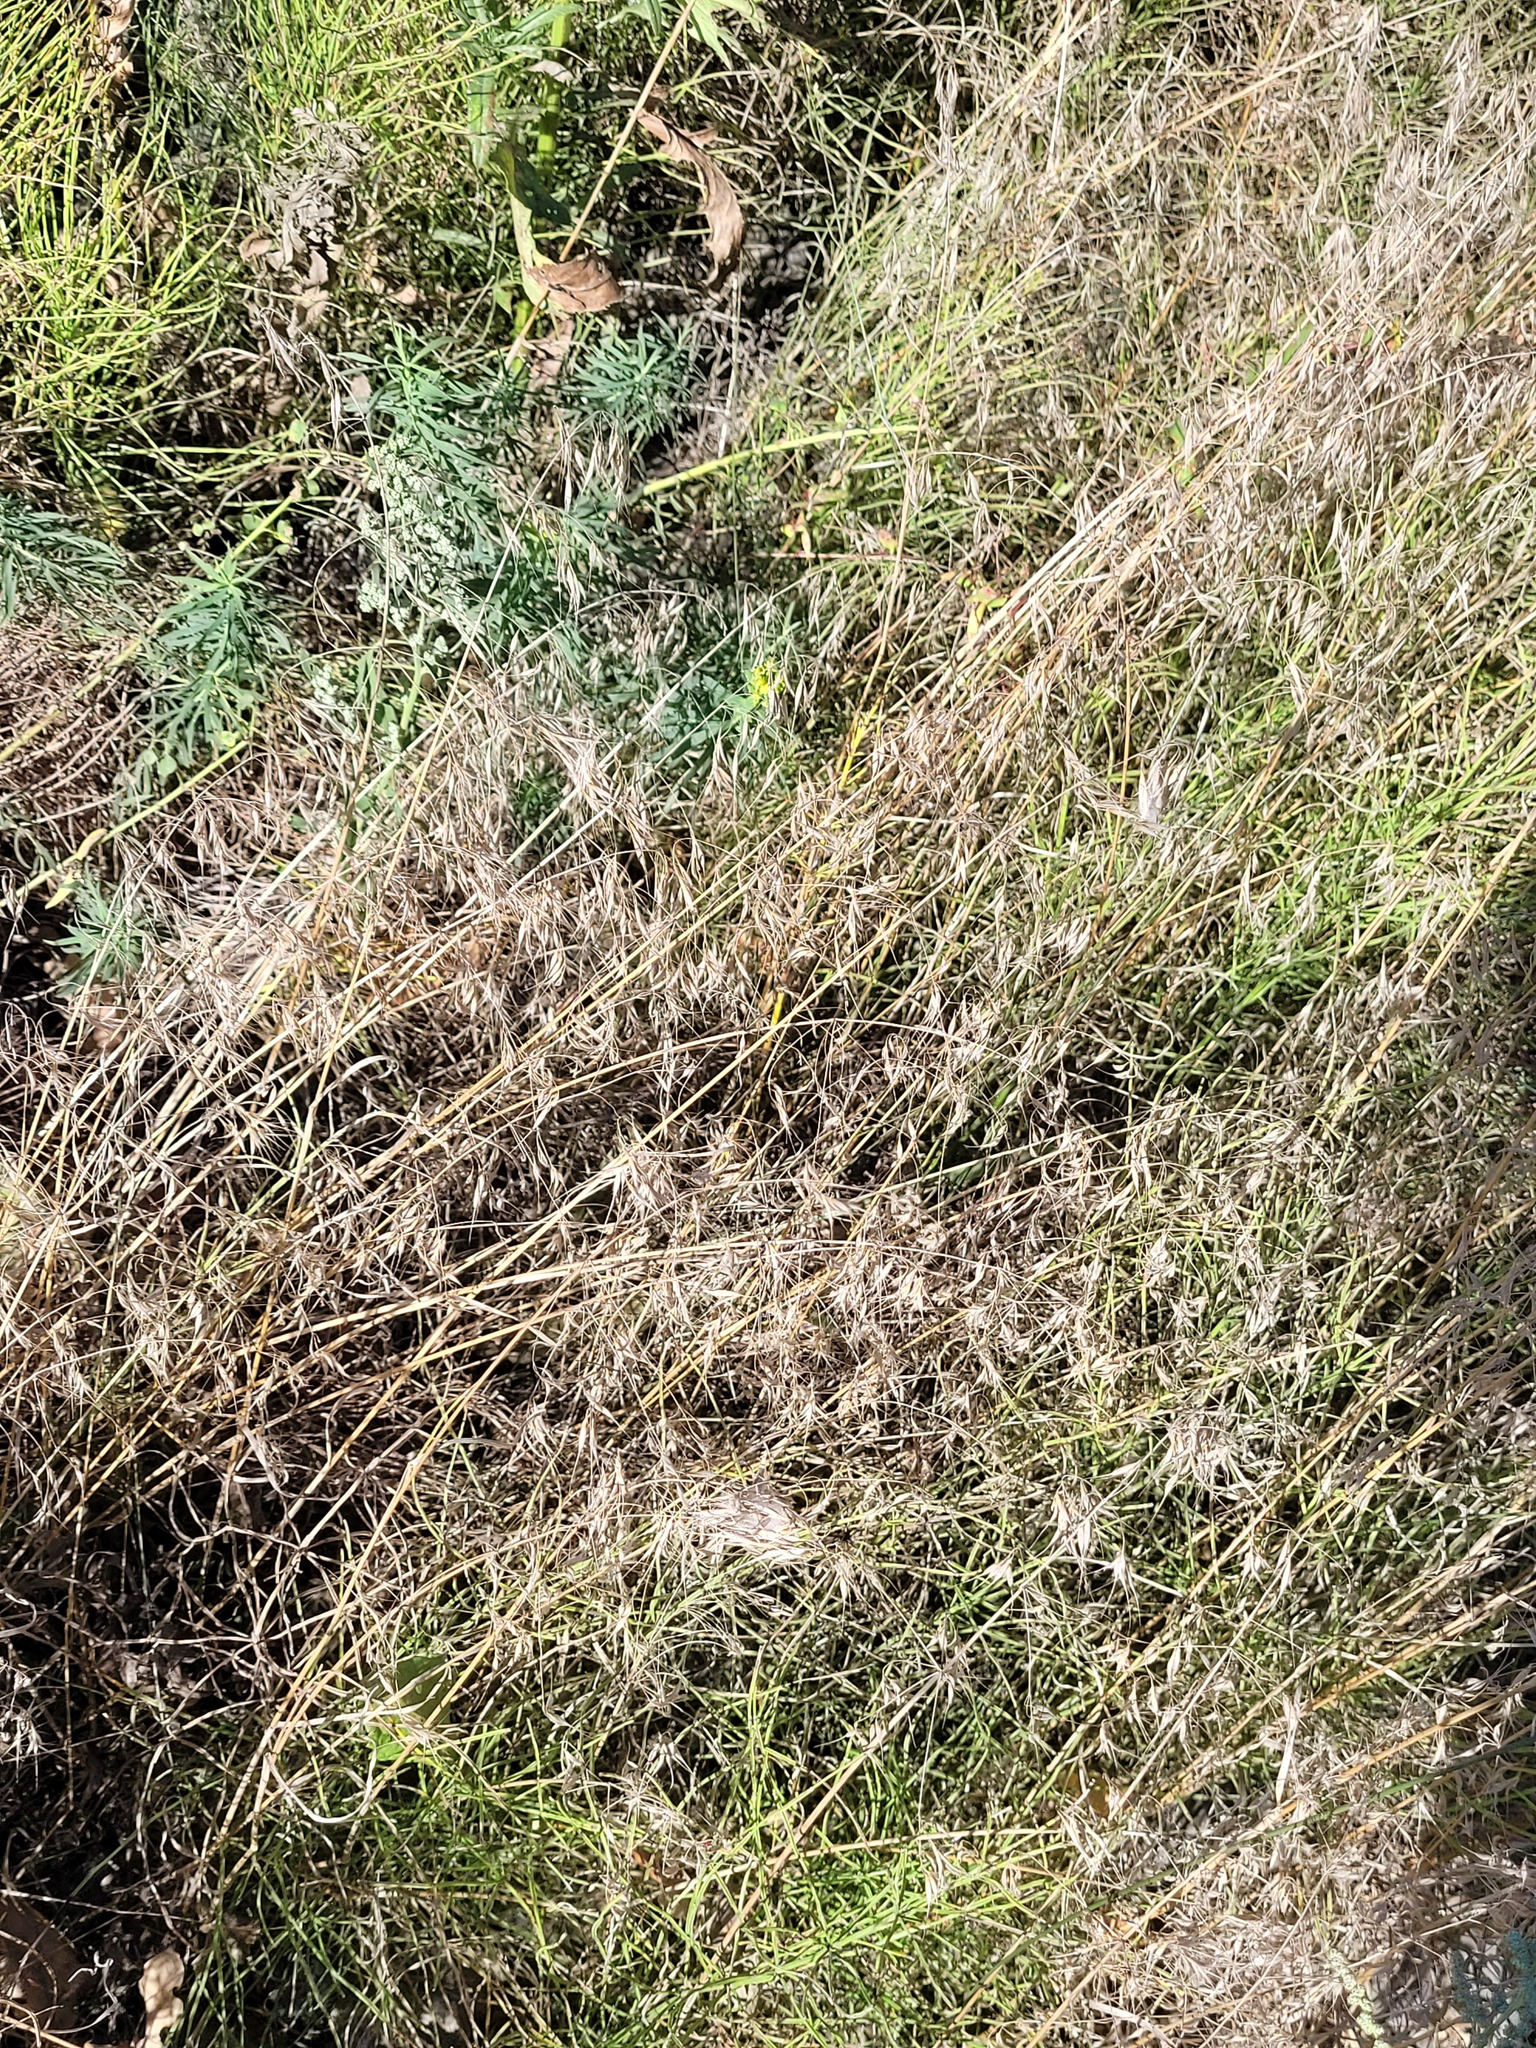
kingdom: Plantae
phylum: Tracheophyta
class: Liliopsida
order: Poales
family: Poaceae
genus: Bromus
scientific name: Bromus tectorum
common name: Cheatgrass
